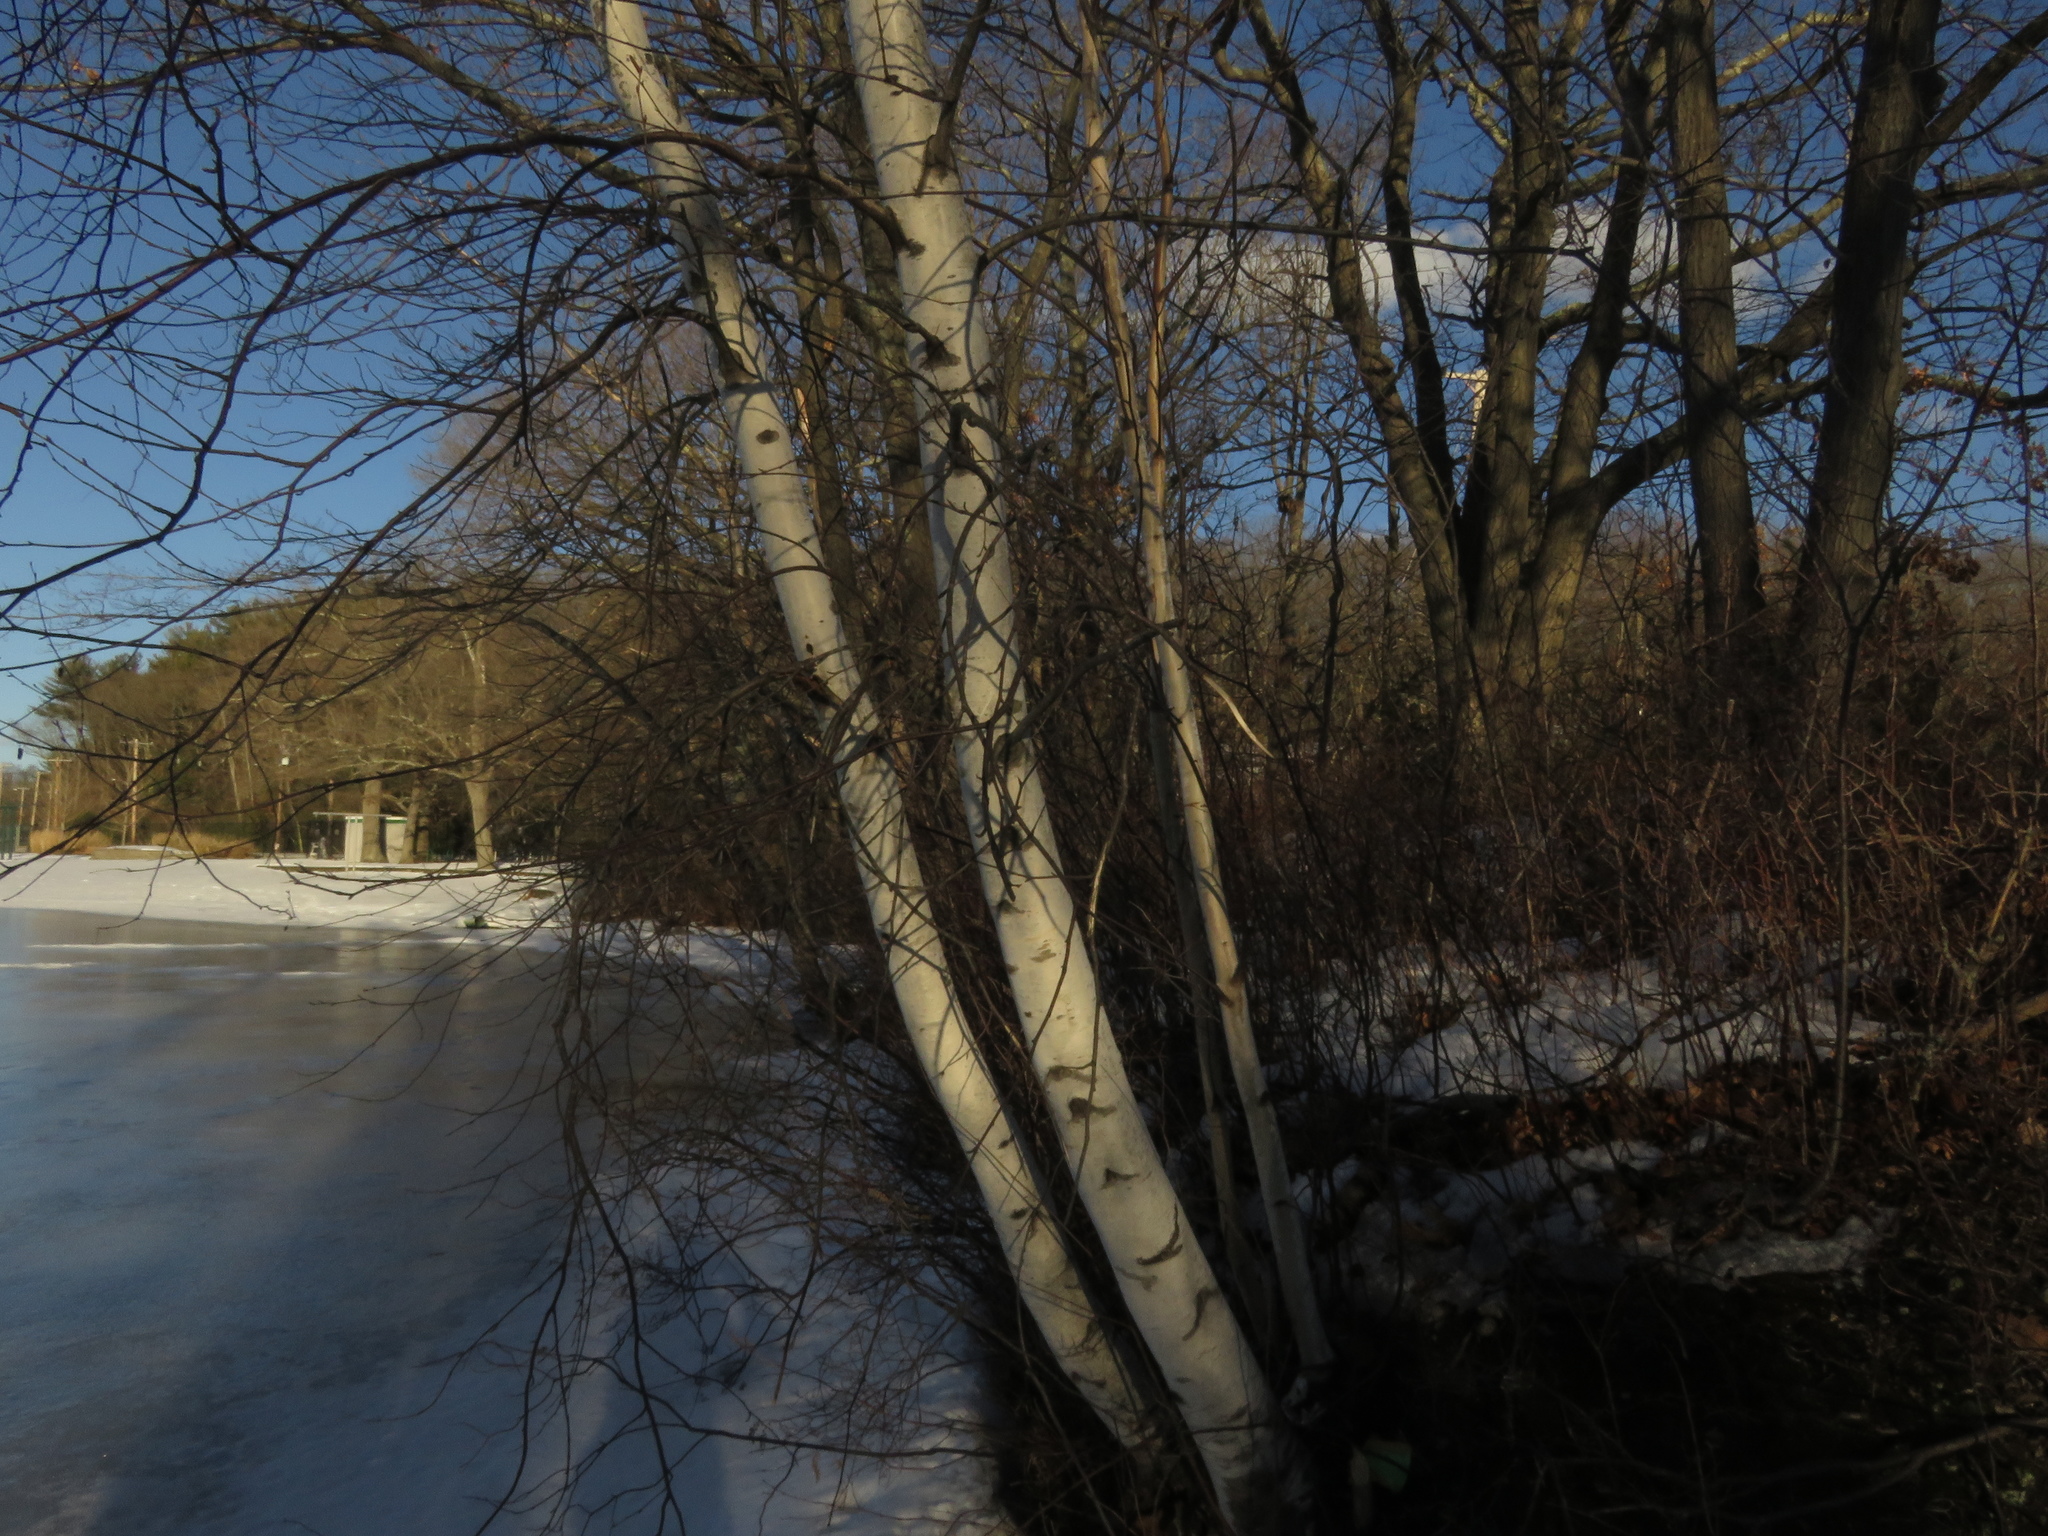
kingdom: Plantae
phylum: Tracheophyta
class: Magnoliopsida
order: Fagales
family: Betulaceae
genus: Betula
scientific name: Betula populifolia
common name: Fire birch
